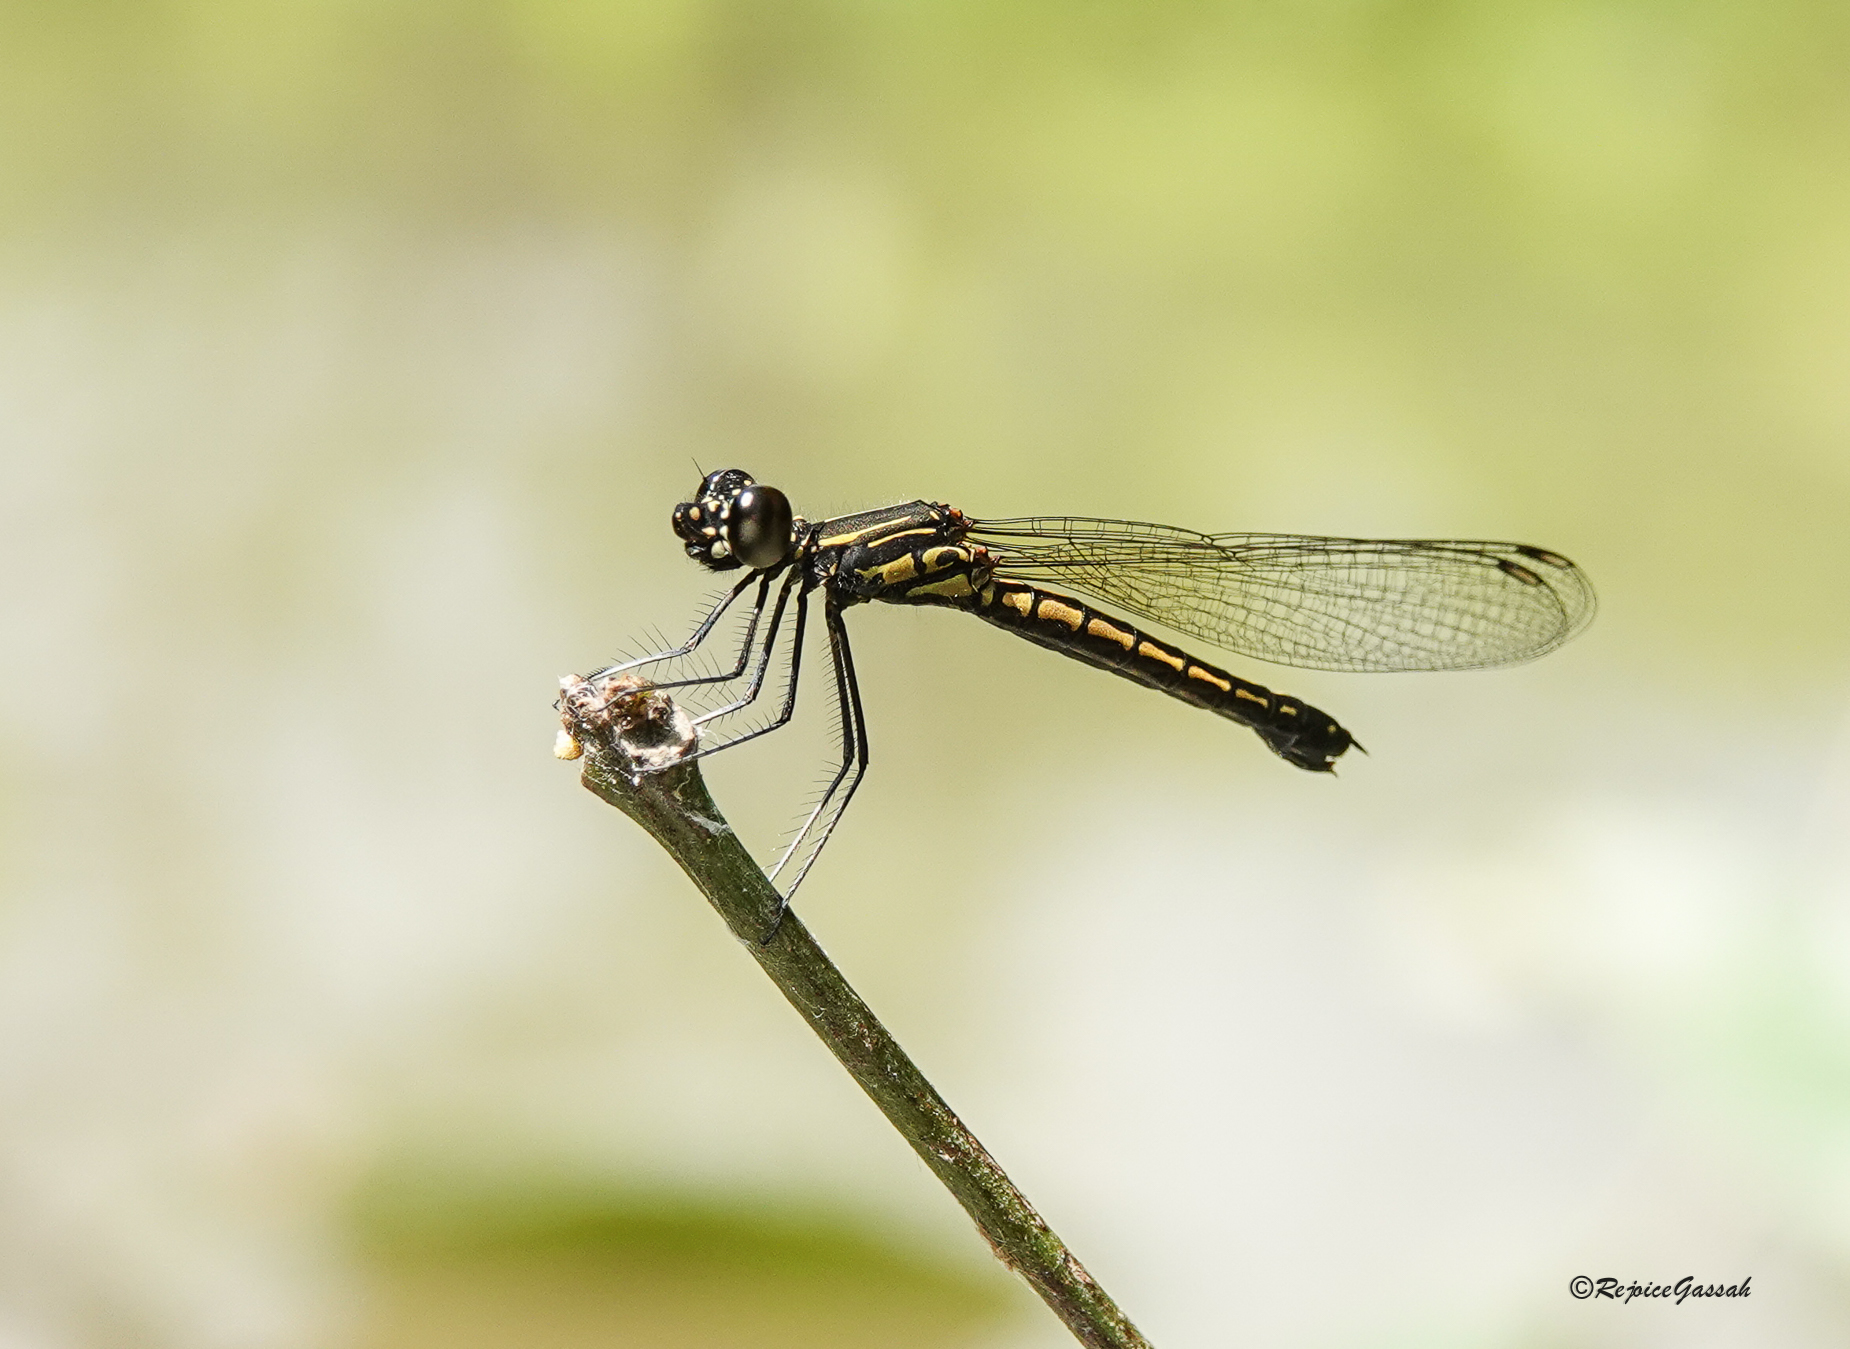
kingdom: Animalia
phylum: Arthropoda
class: Insecta
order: Odonata
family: Chlorocyphidae
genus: Libellago
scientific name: Libellago lineata
